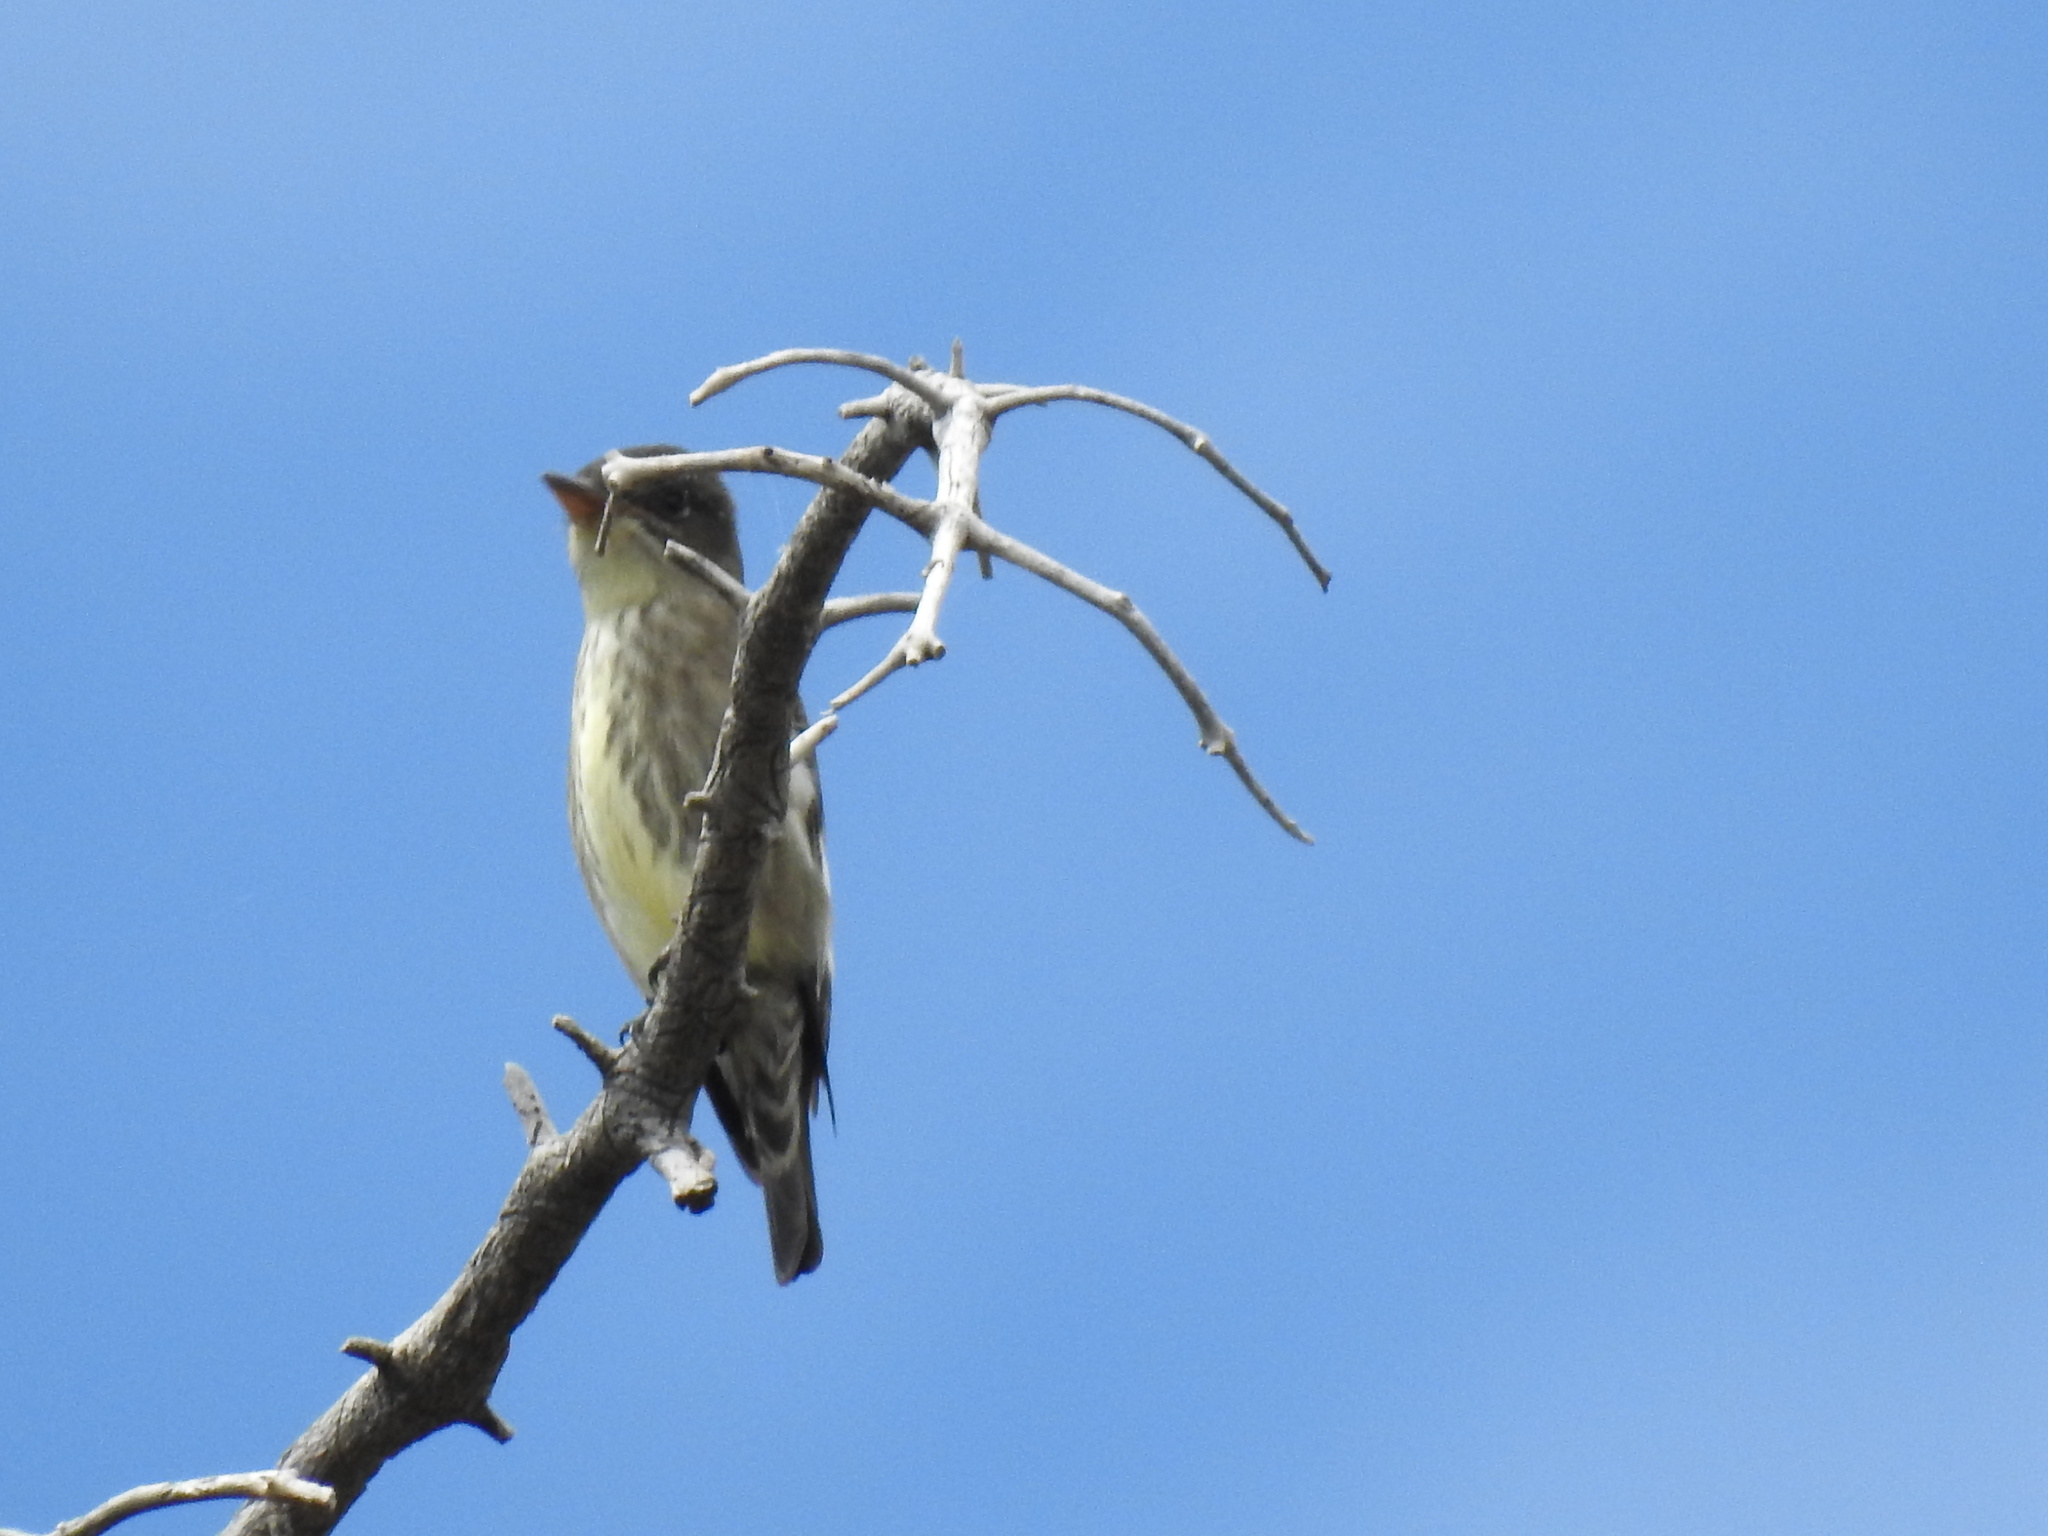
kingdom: Animalia
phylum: Chordata
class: Aves
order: Passeriformes
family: Tyrannidae
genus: Contopus
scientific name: Contopus cooperi
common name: Olive-sided flycatcher
